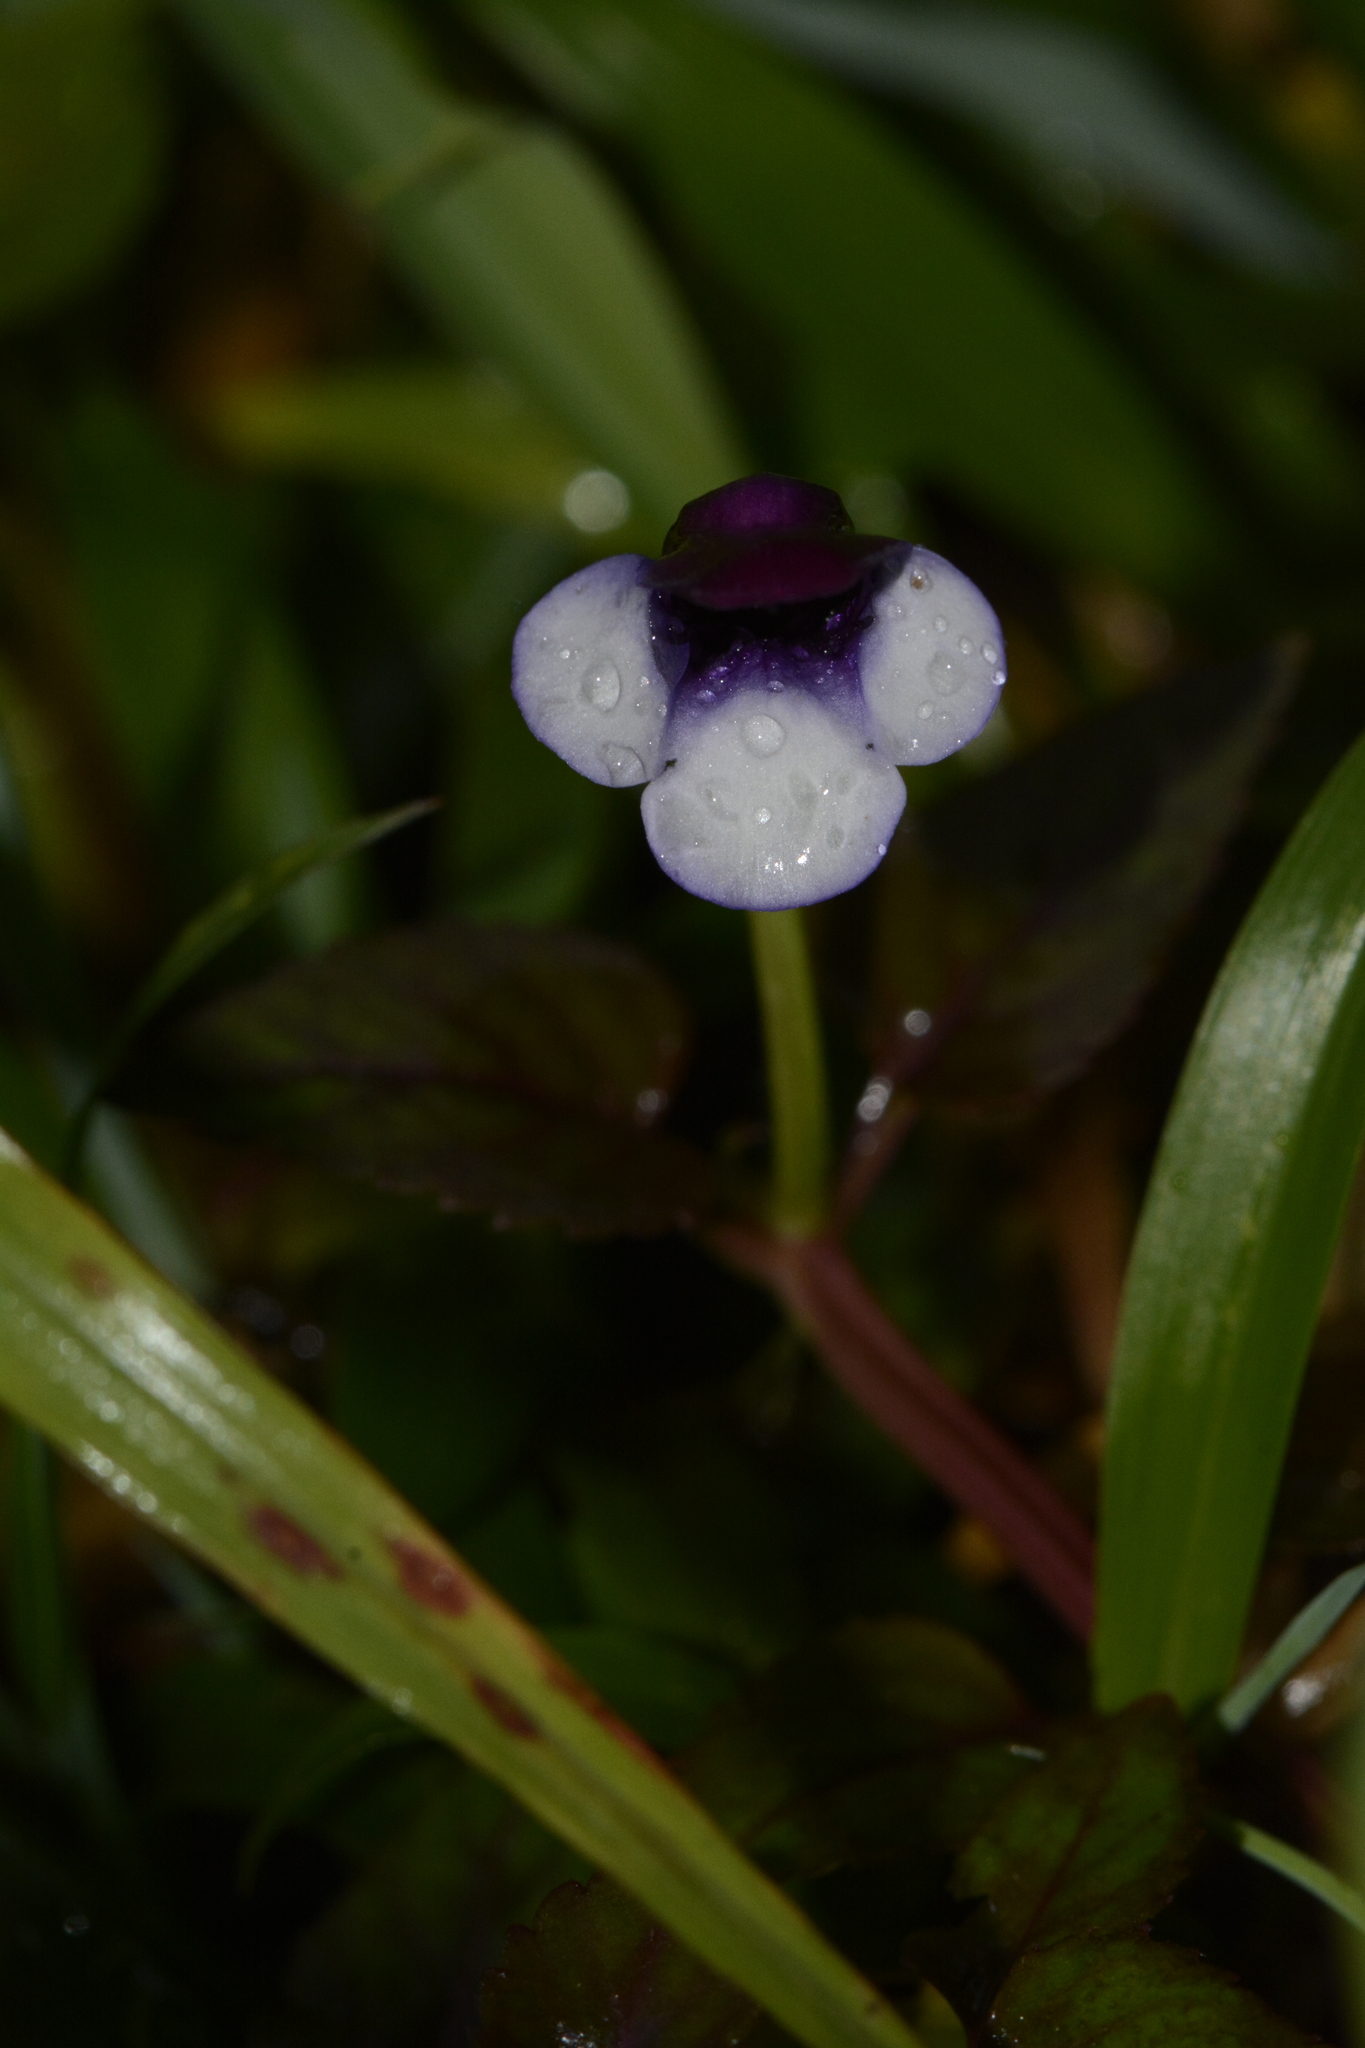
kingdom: Plantae
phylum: Tracheophyta
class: Magnoliopsida
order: Lamiales
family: Linderniaceae
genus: Torenia
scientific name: Torenia bicolor
